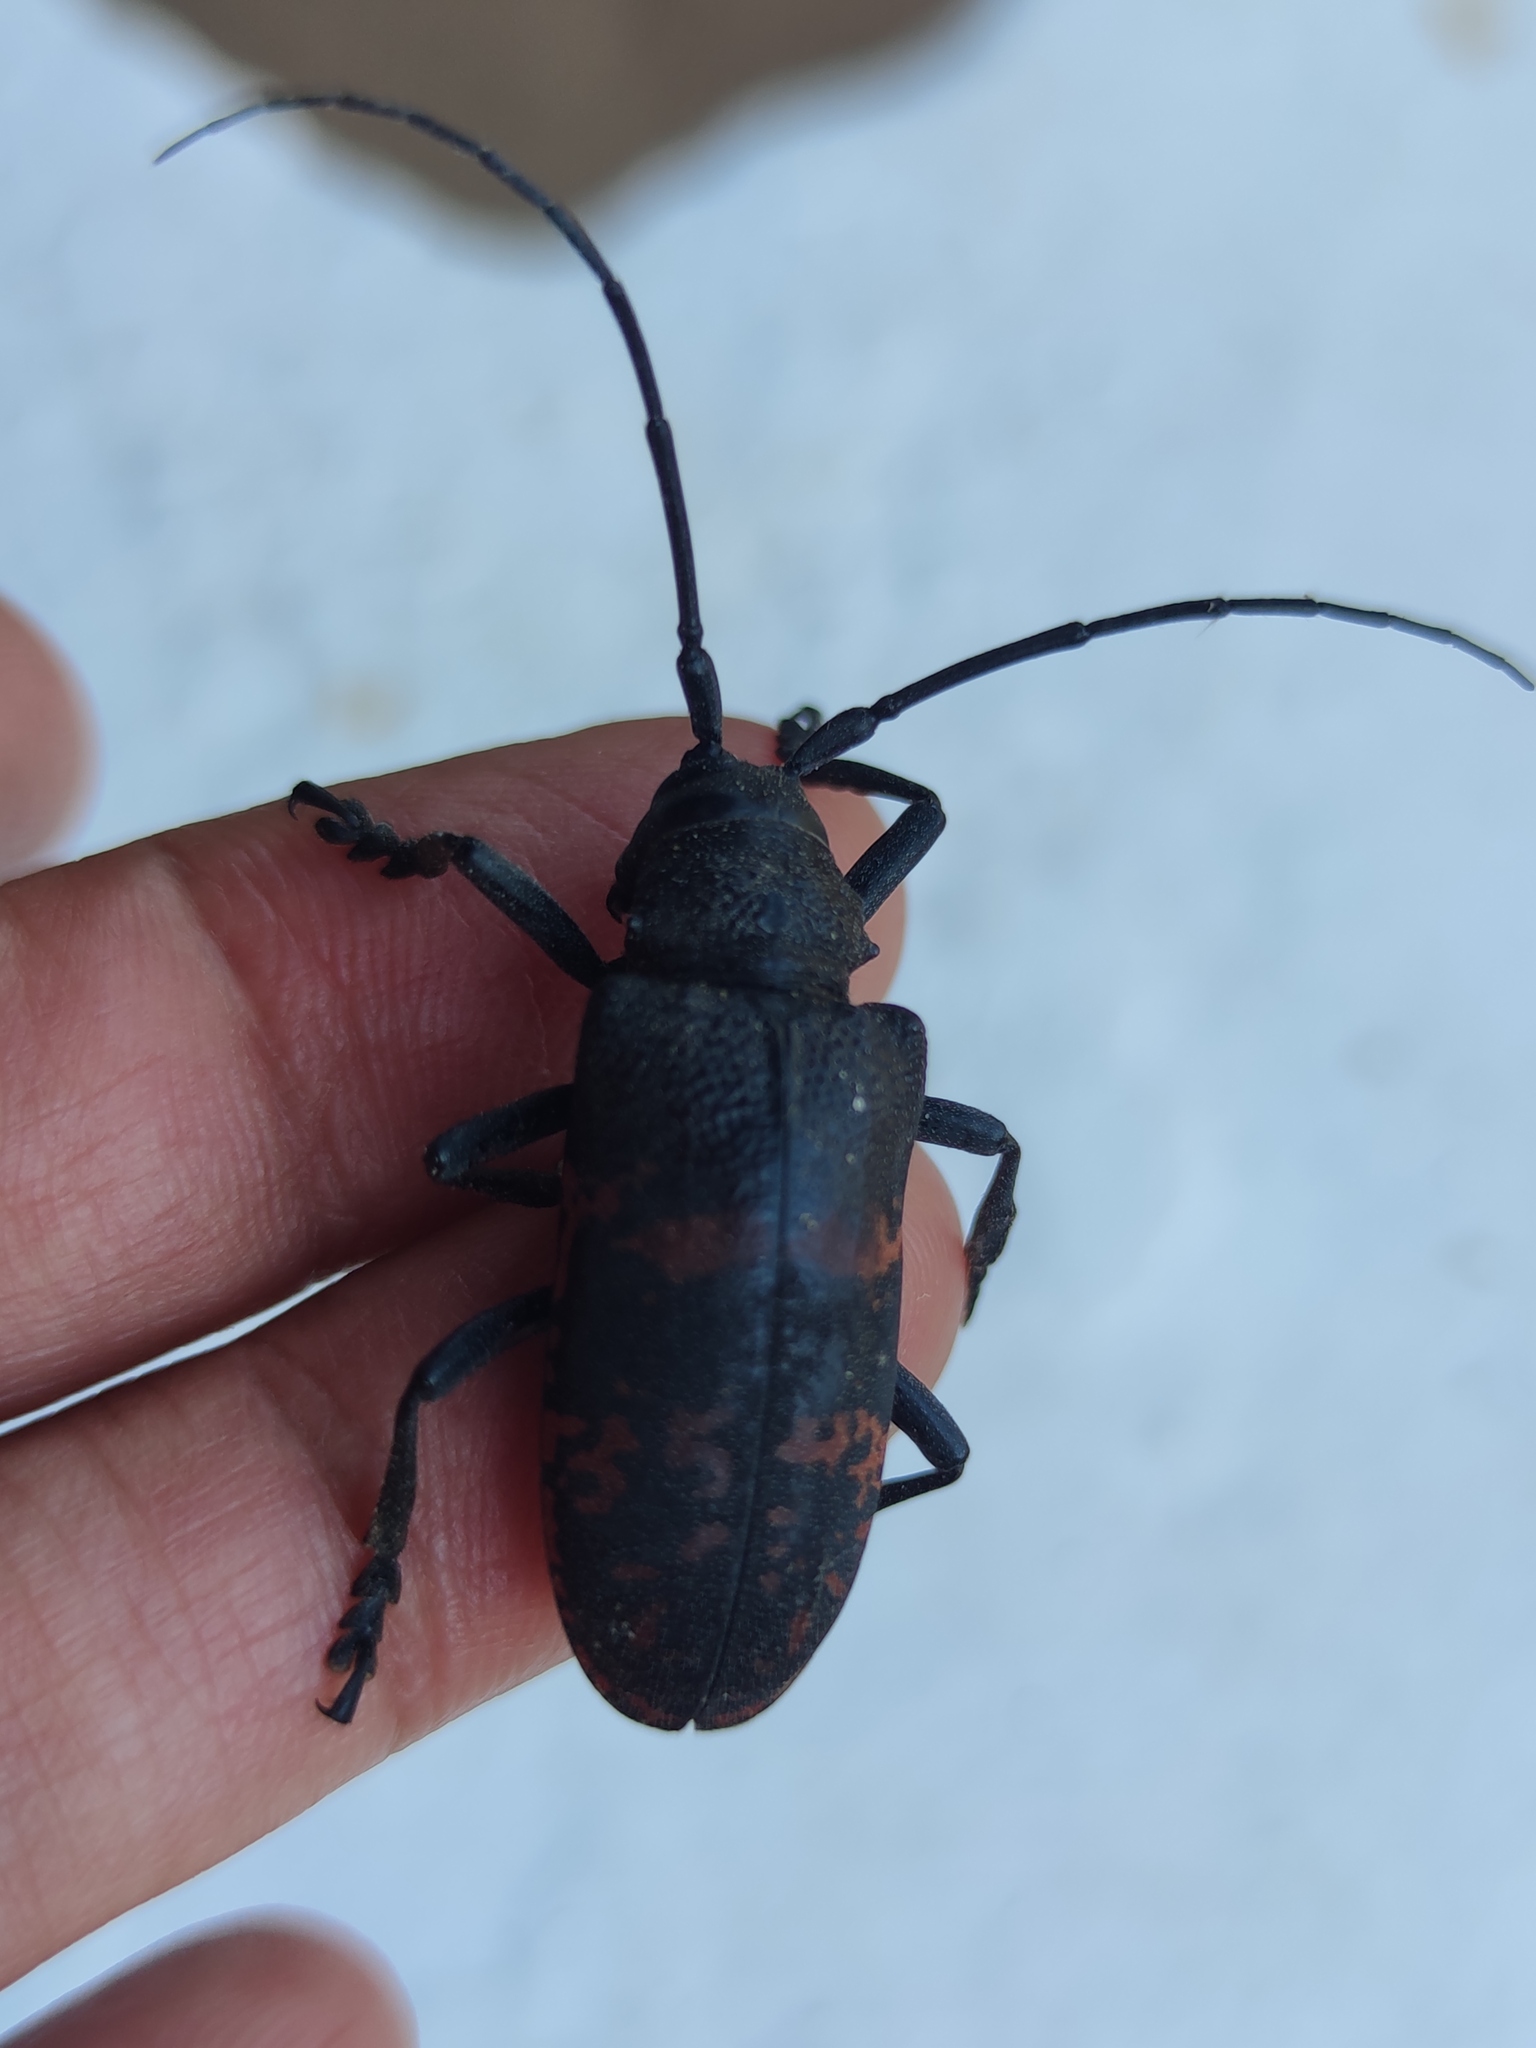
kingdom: Animalia
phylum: Arthropoda
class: Insecta
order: Coleoptera
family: Cerambycidae
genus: Ceroplesis
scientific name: Ceroplesis militaris
